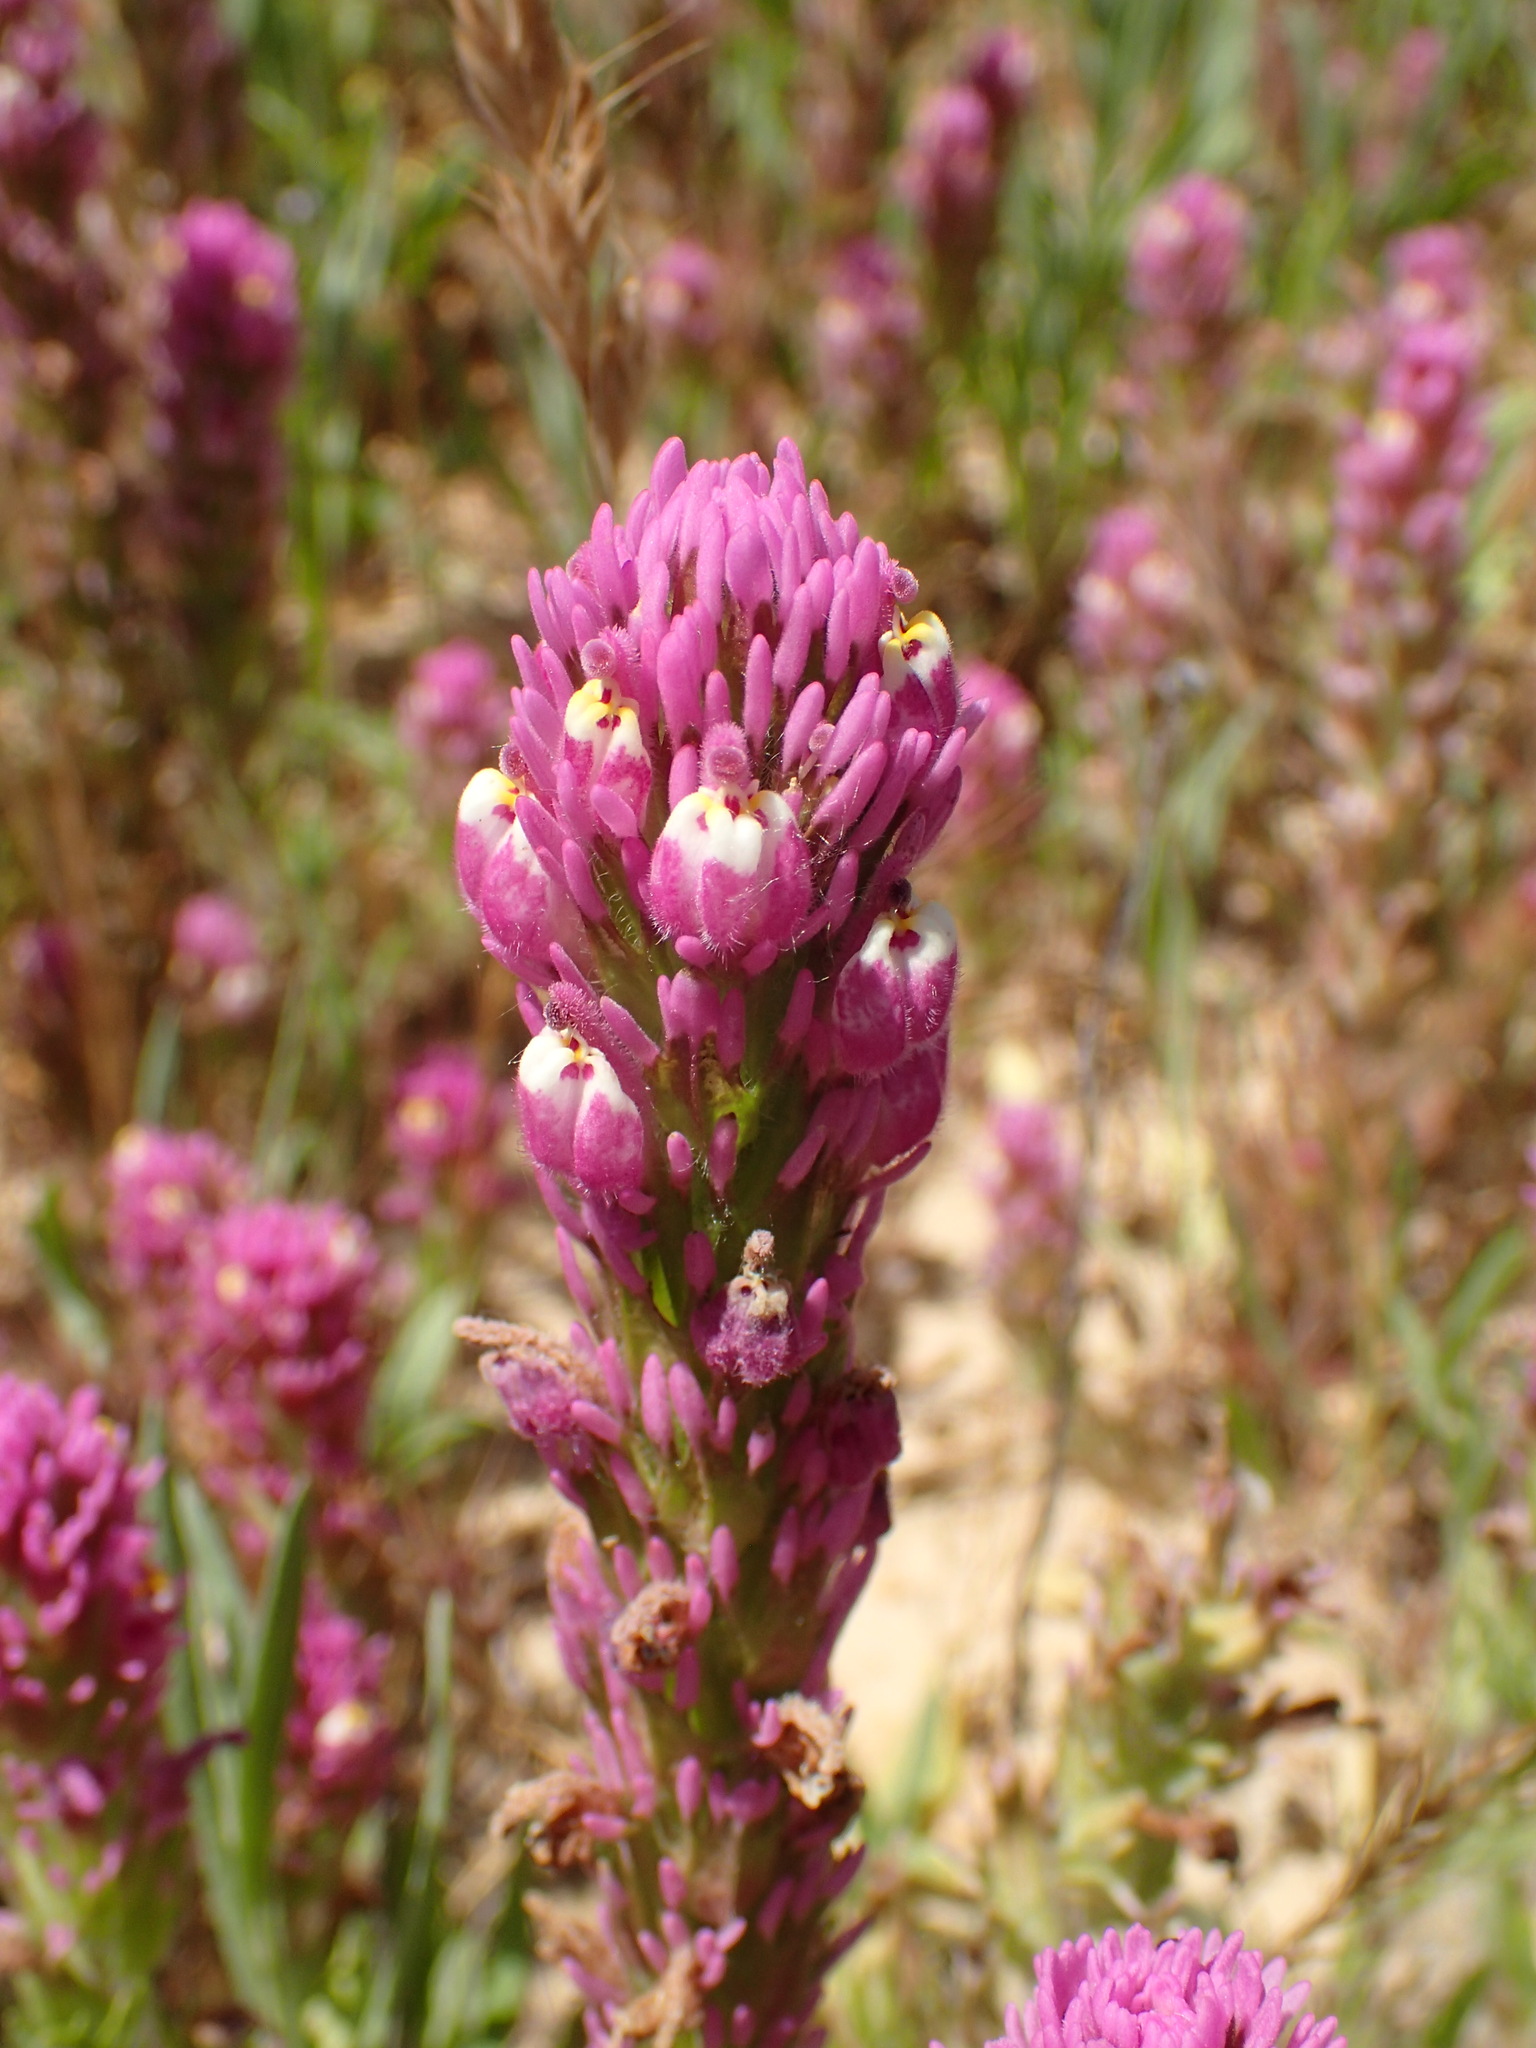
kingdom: Plantae
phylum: Tracheophyta
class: Magnoliopsida
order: Lamiales
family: Orobanchaceae
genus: Castilleja
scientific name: Castilleja exserta
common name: Purple owl-clover
